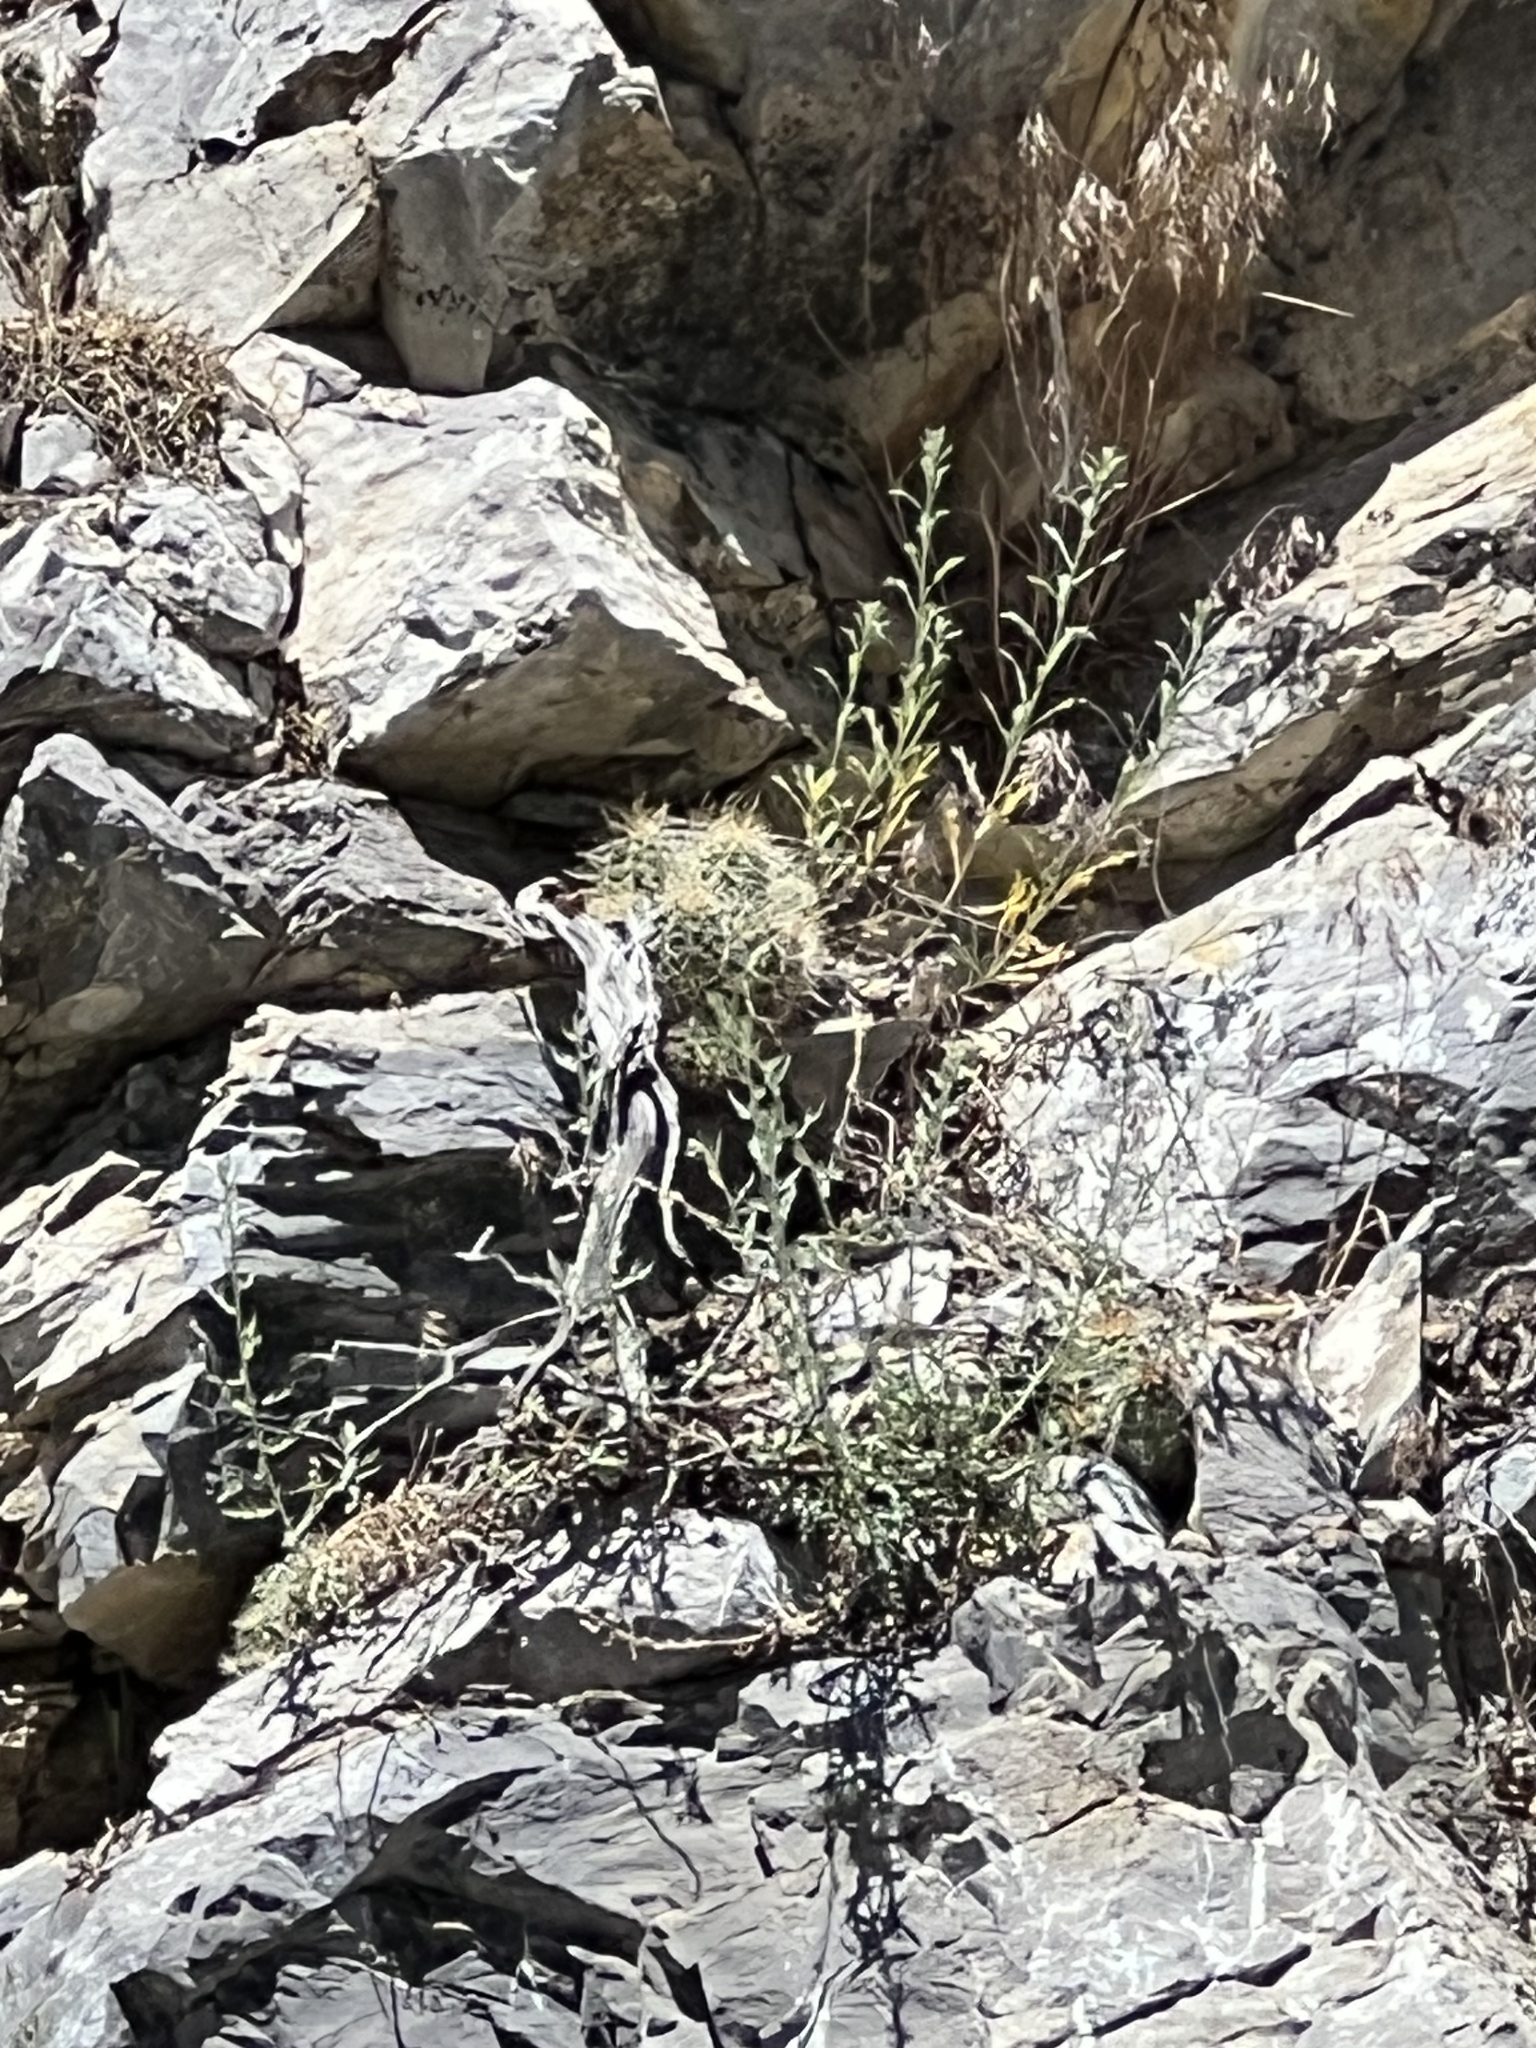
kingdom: Plantae
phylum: Tracheophyta
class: Magnoliopsida
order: Caryophyllales
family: Cactaceae
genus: Echinocereus
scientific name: Echinocereus triglochidiatus
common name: Claretcup hedgehog
